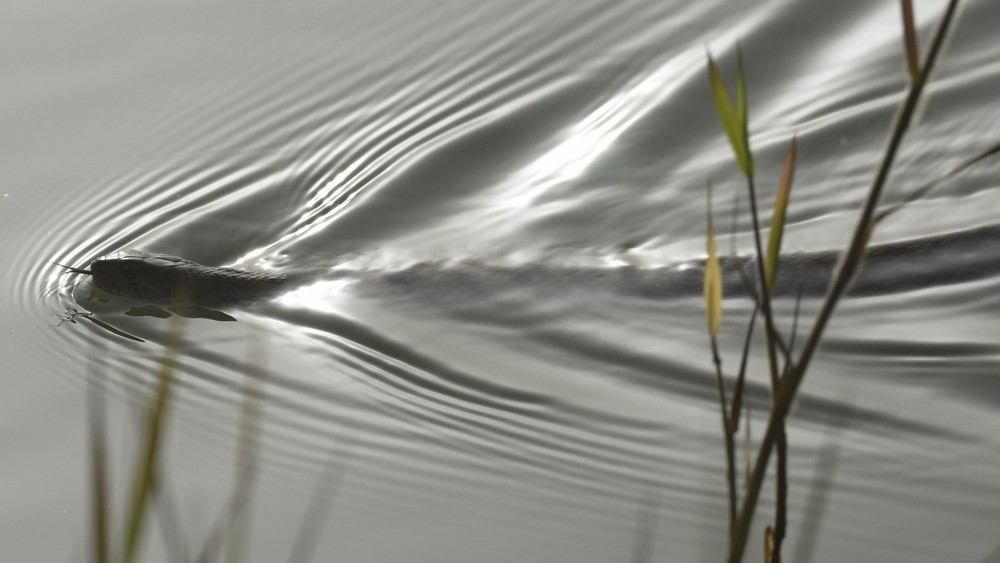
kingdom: Animalia
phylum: Chordata
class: Squamata
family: Colubridae
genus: Fowlea
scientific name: Fowlea piscator
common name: Asiatic water snake
